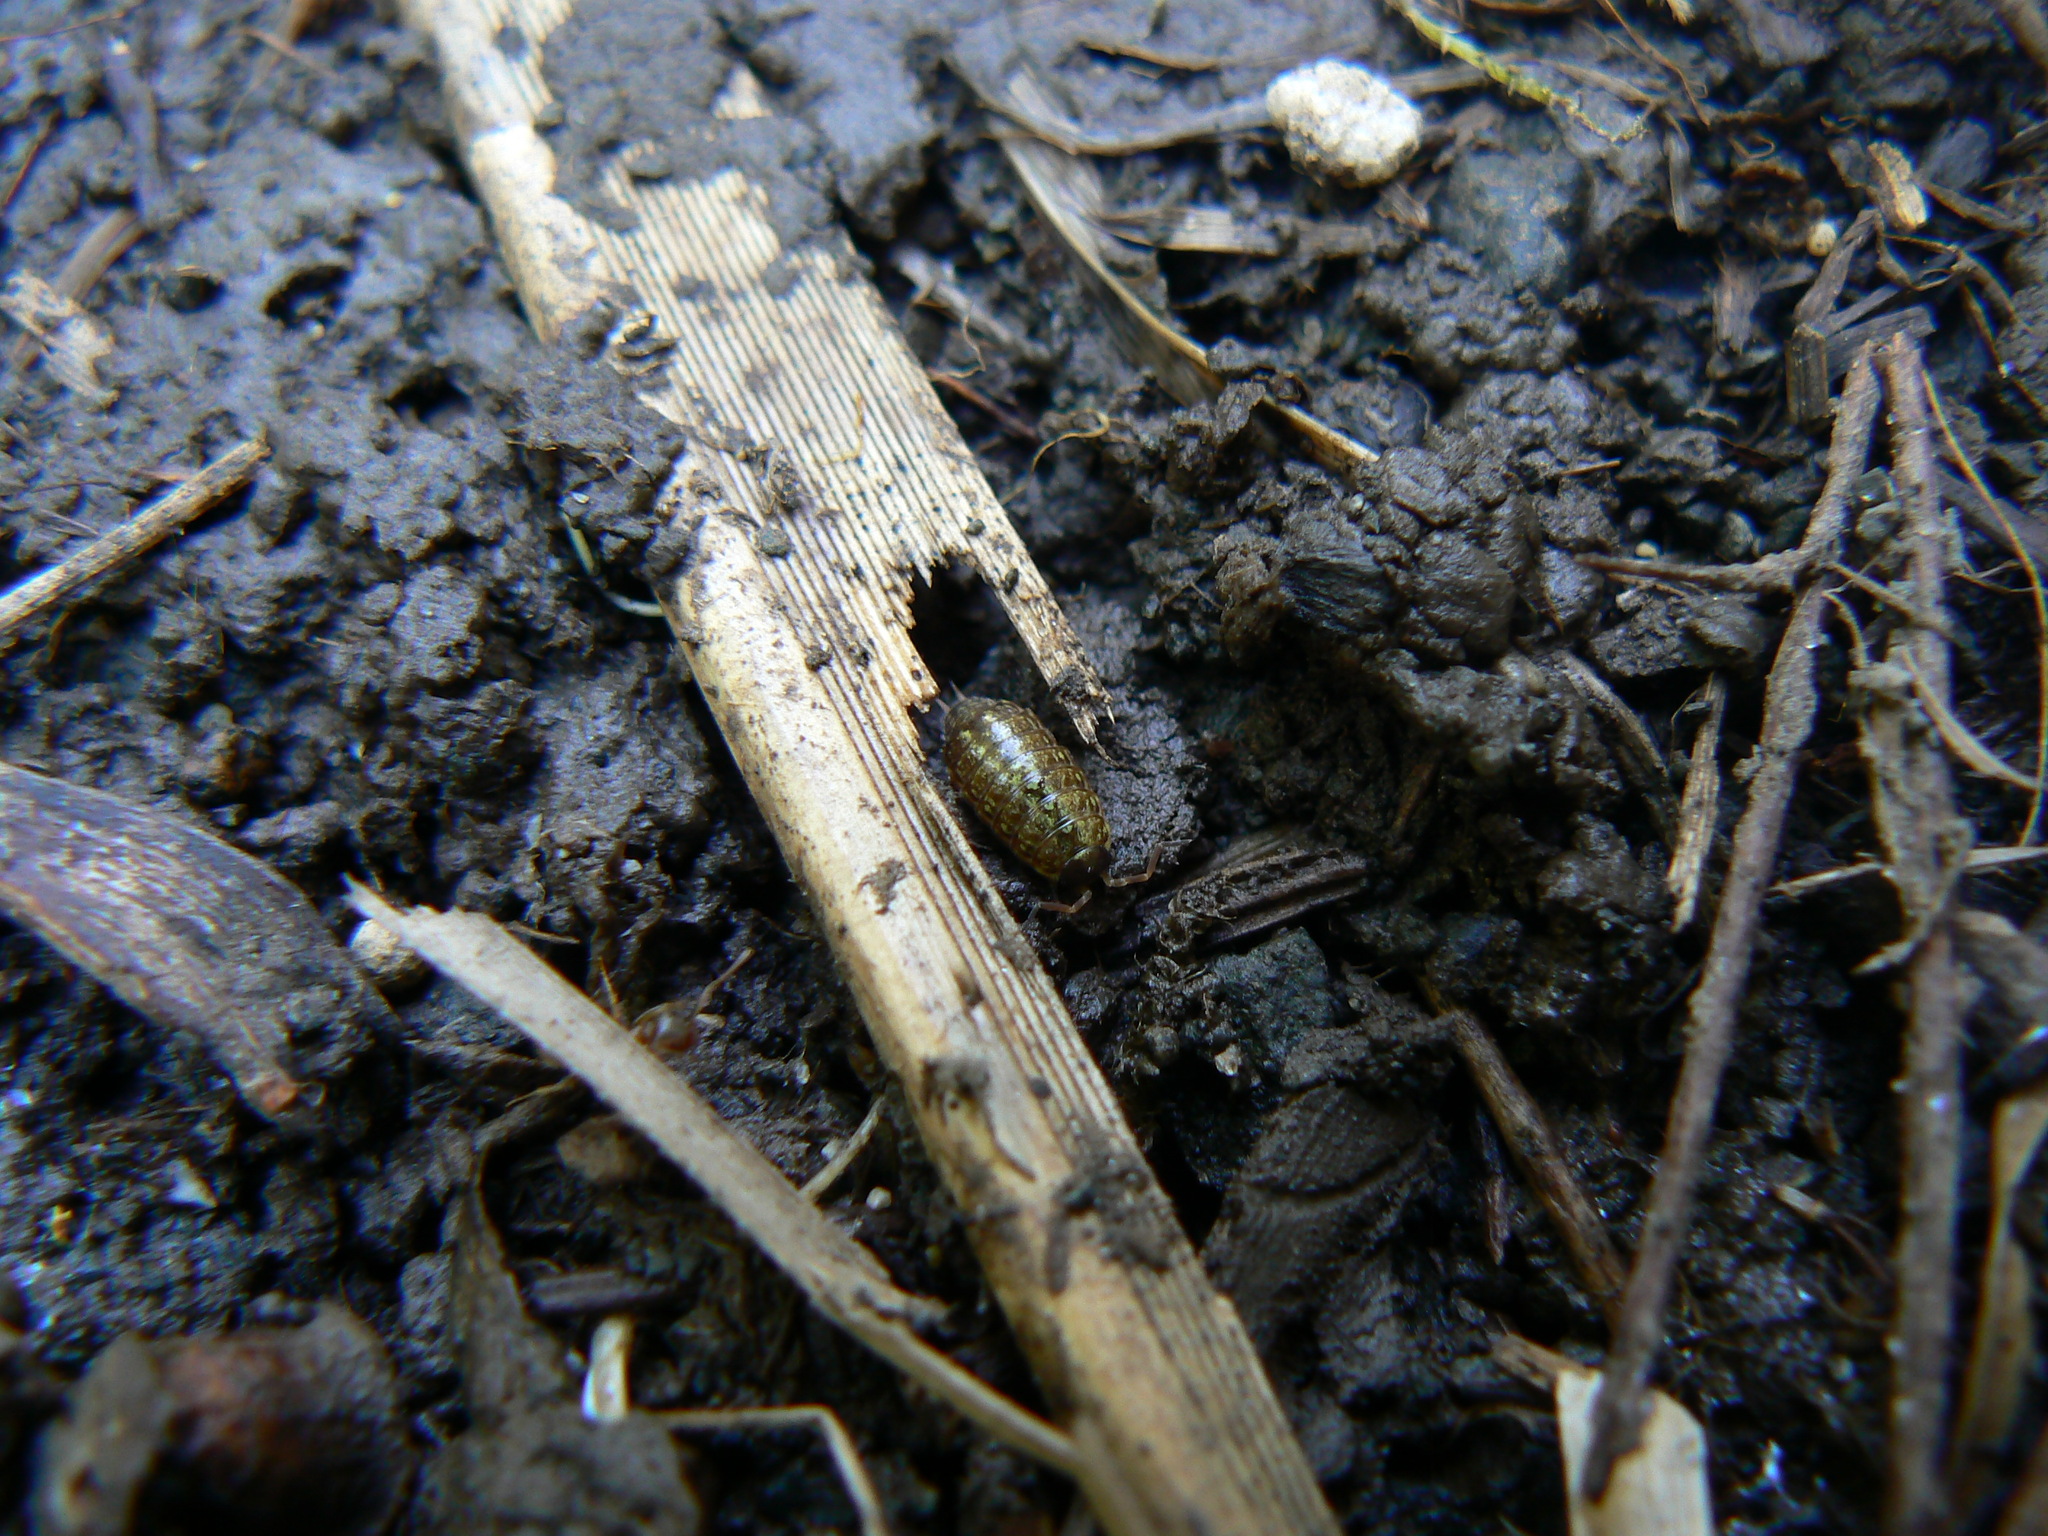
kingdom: Animalia
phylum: Arthropoda
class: Malacostraca
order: Isopoda
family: Philosciidae
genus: Philoscia
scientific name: Philoscia muscorum
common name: Common striped woodlouse
